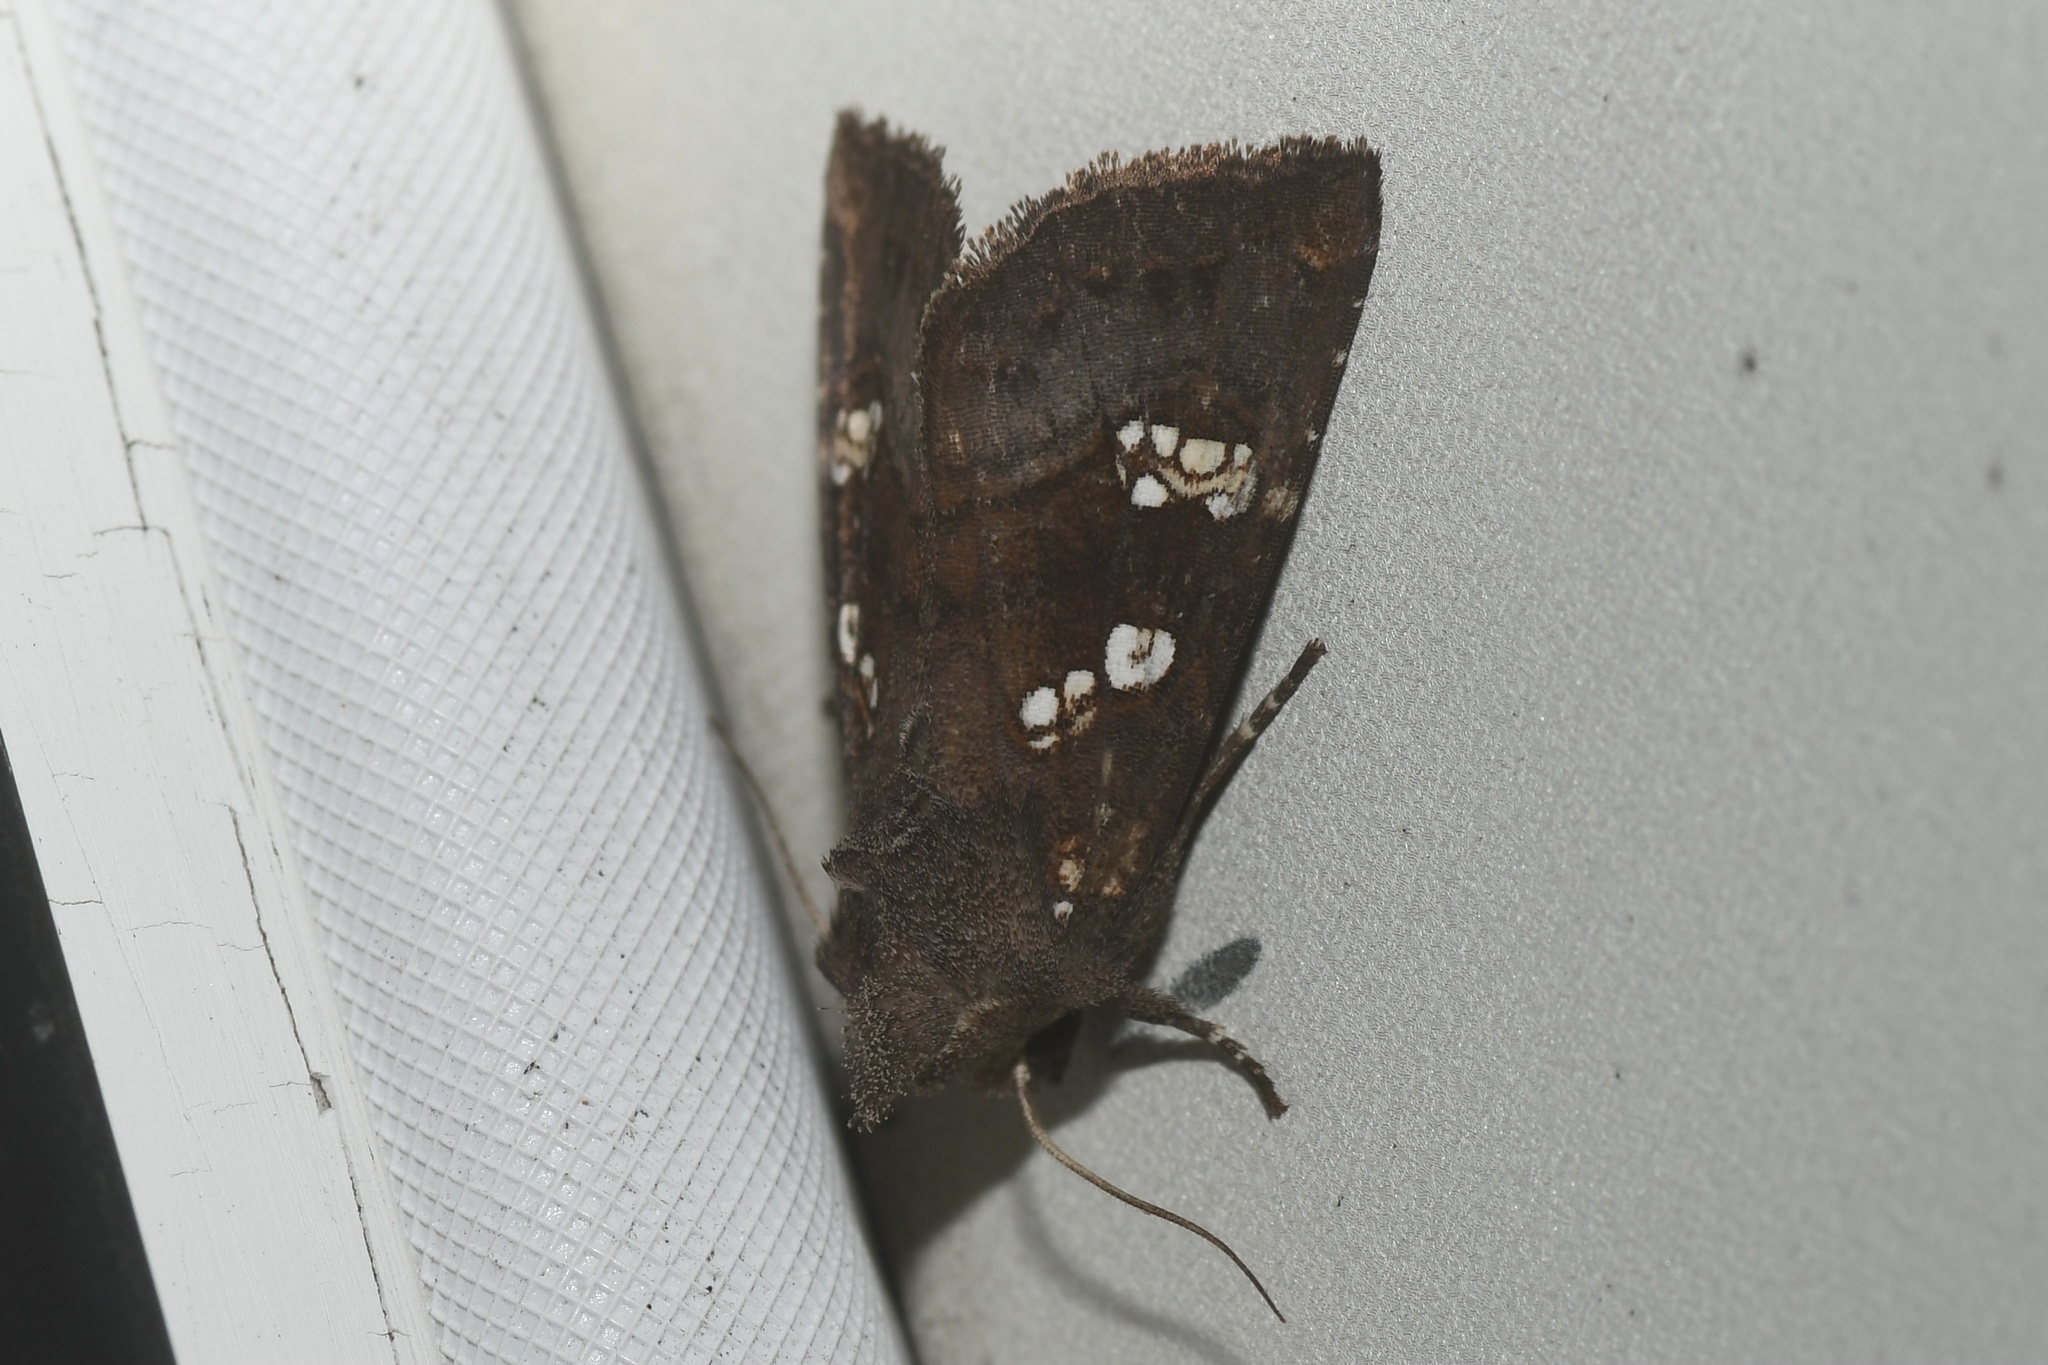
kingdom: Animalia
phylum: Arthropoda
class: Insecta
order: Lepidoptera
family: Noctuidae
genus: Papaipema
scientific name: Papaipema unimoda
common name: Meadow rue borer moth
